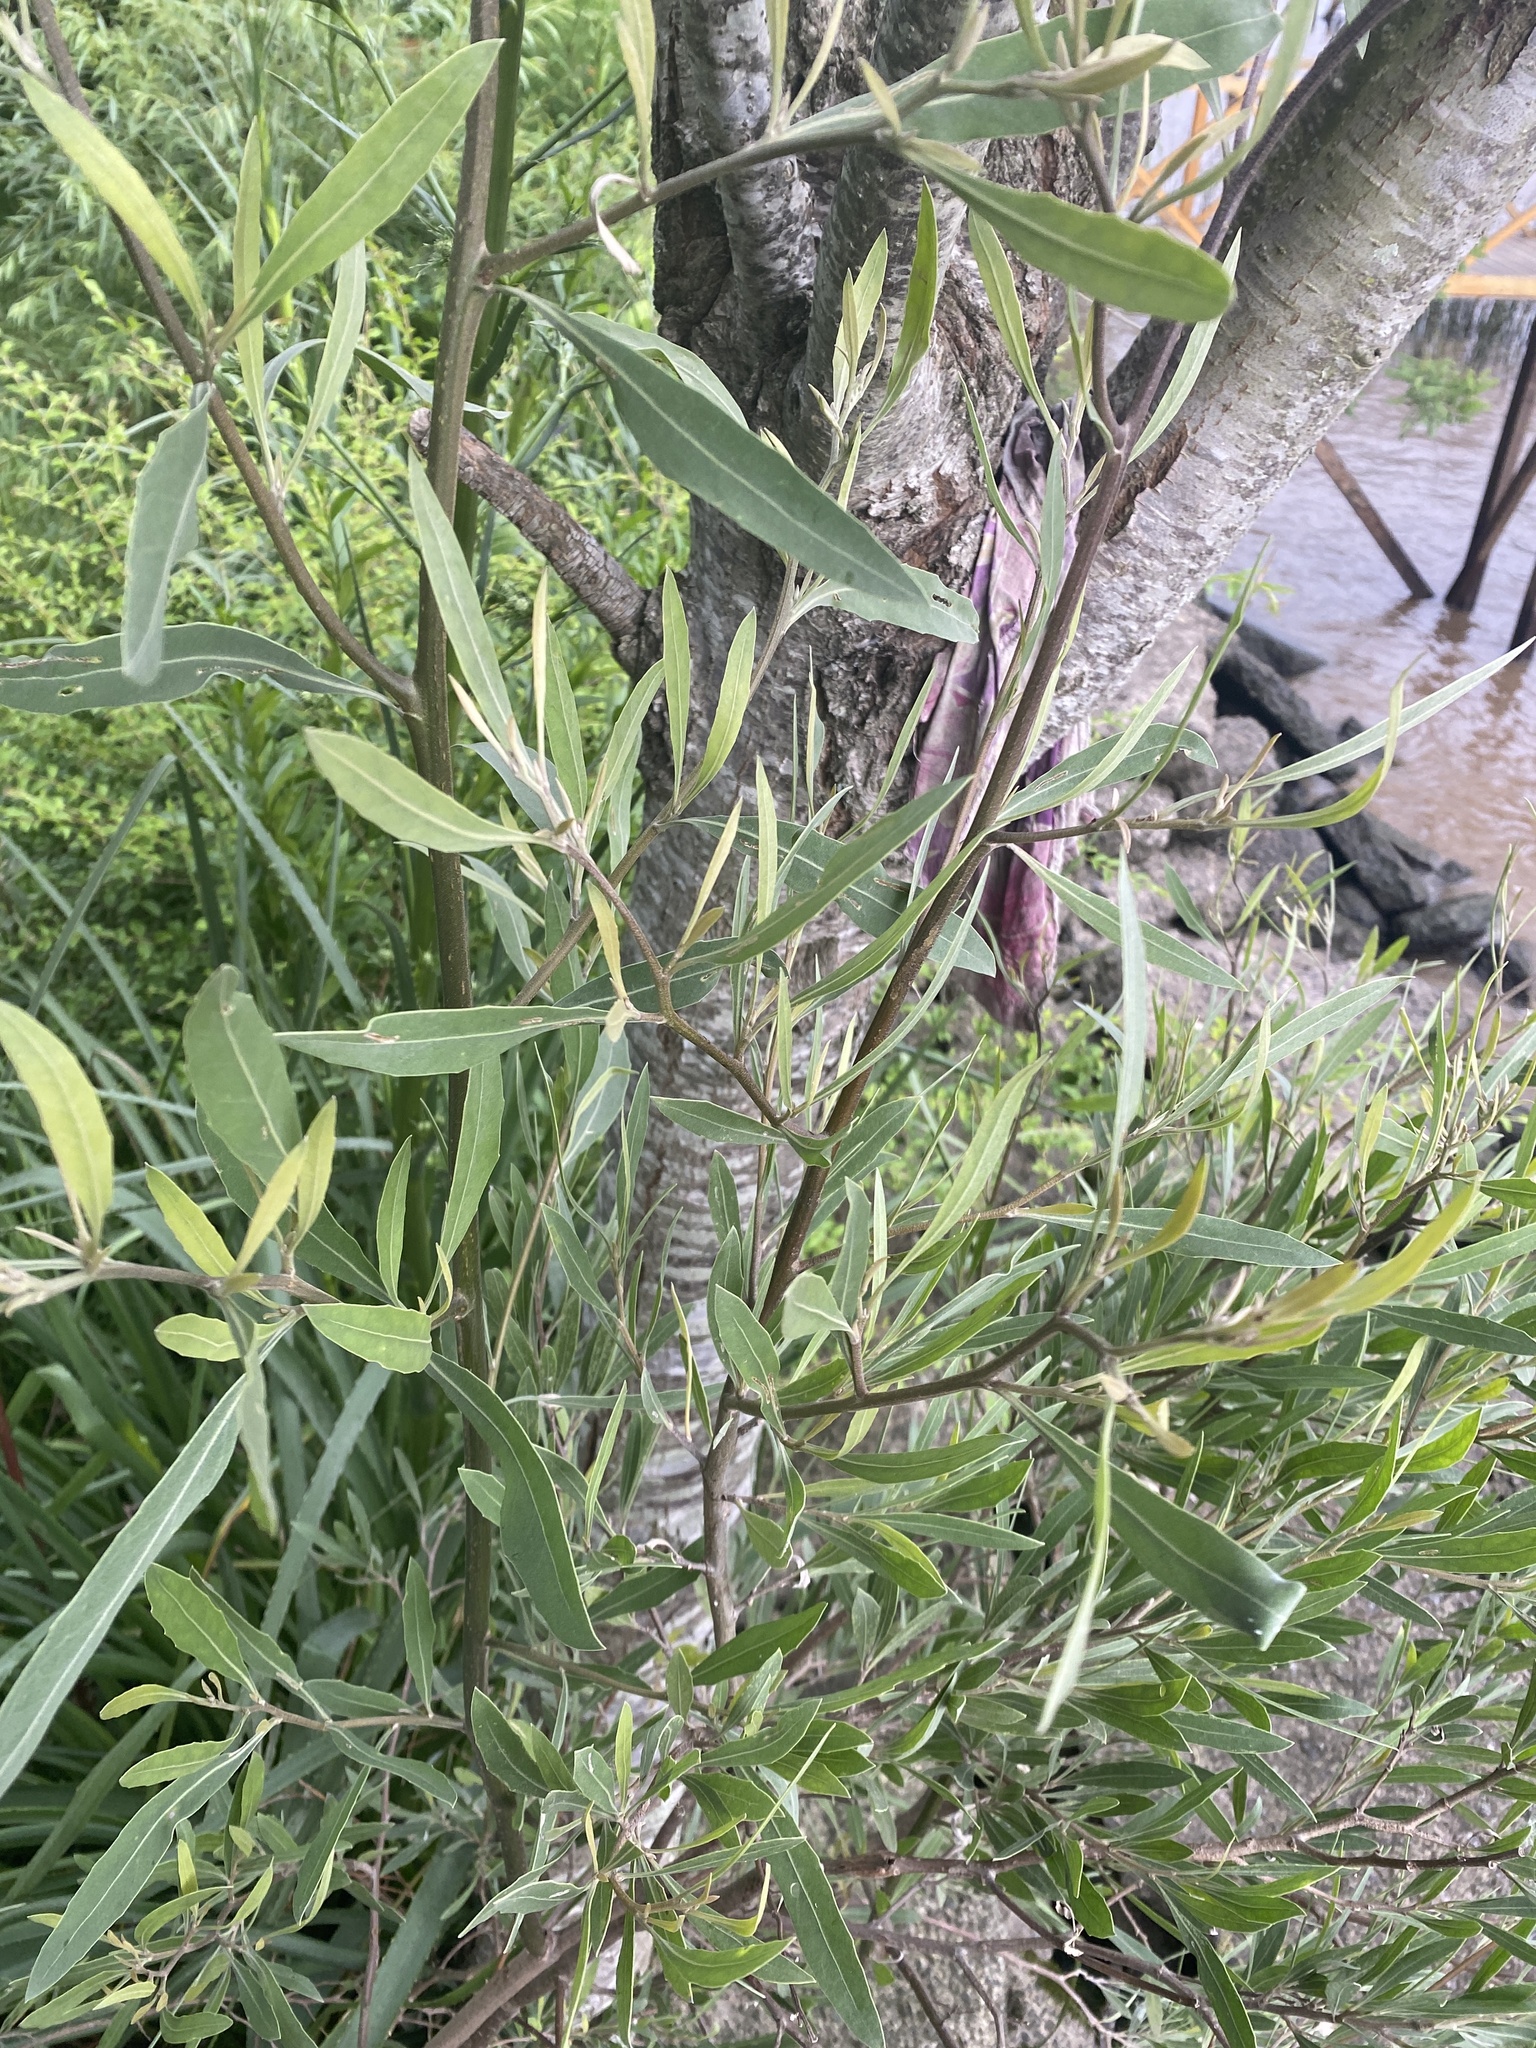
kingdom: Plantae
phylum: Tracheophyta
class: Magnoliopsida
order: Asterales
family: Asteraceae
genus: Tessaria
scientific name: Tessaria integrifolia
